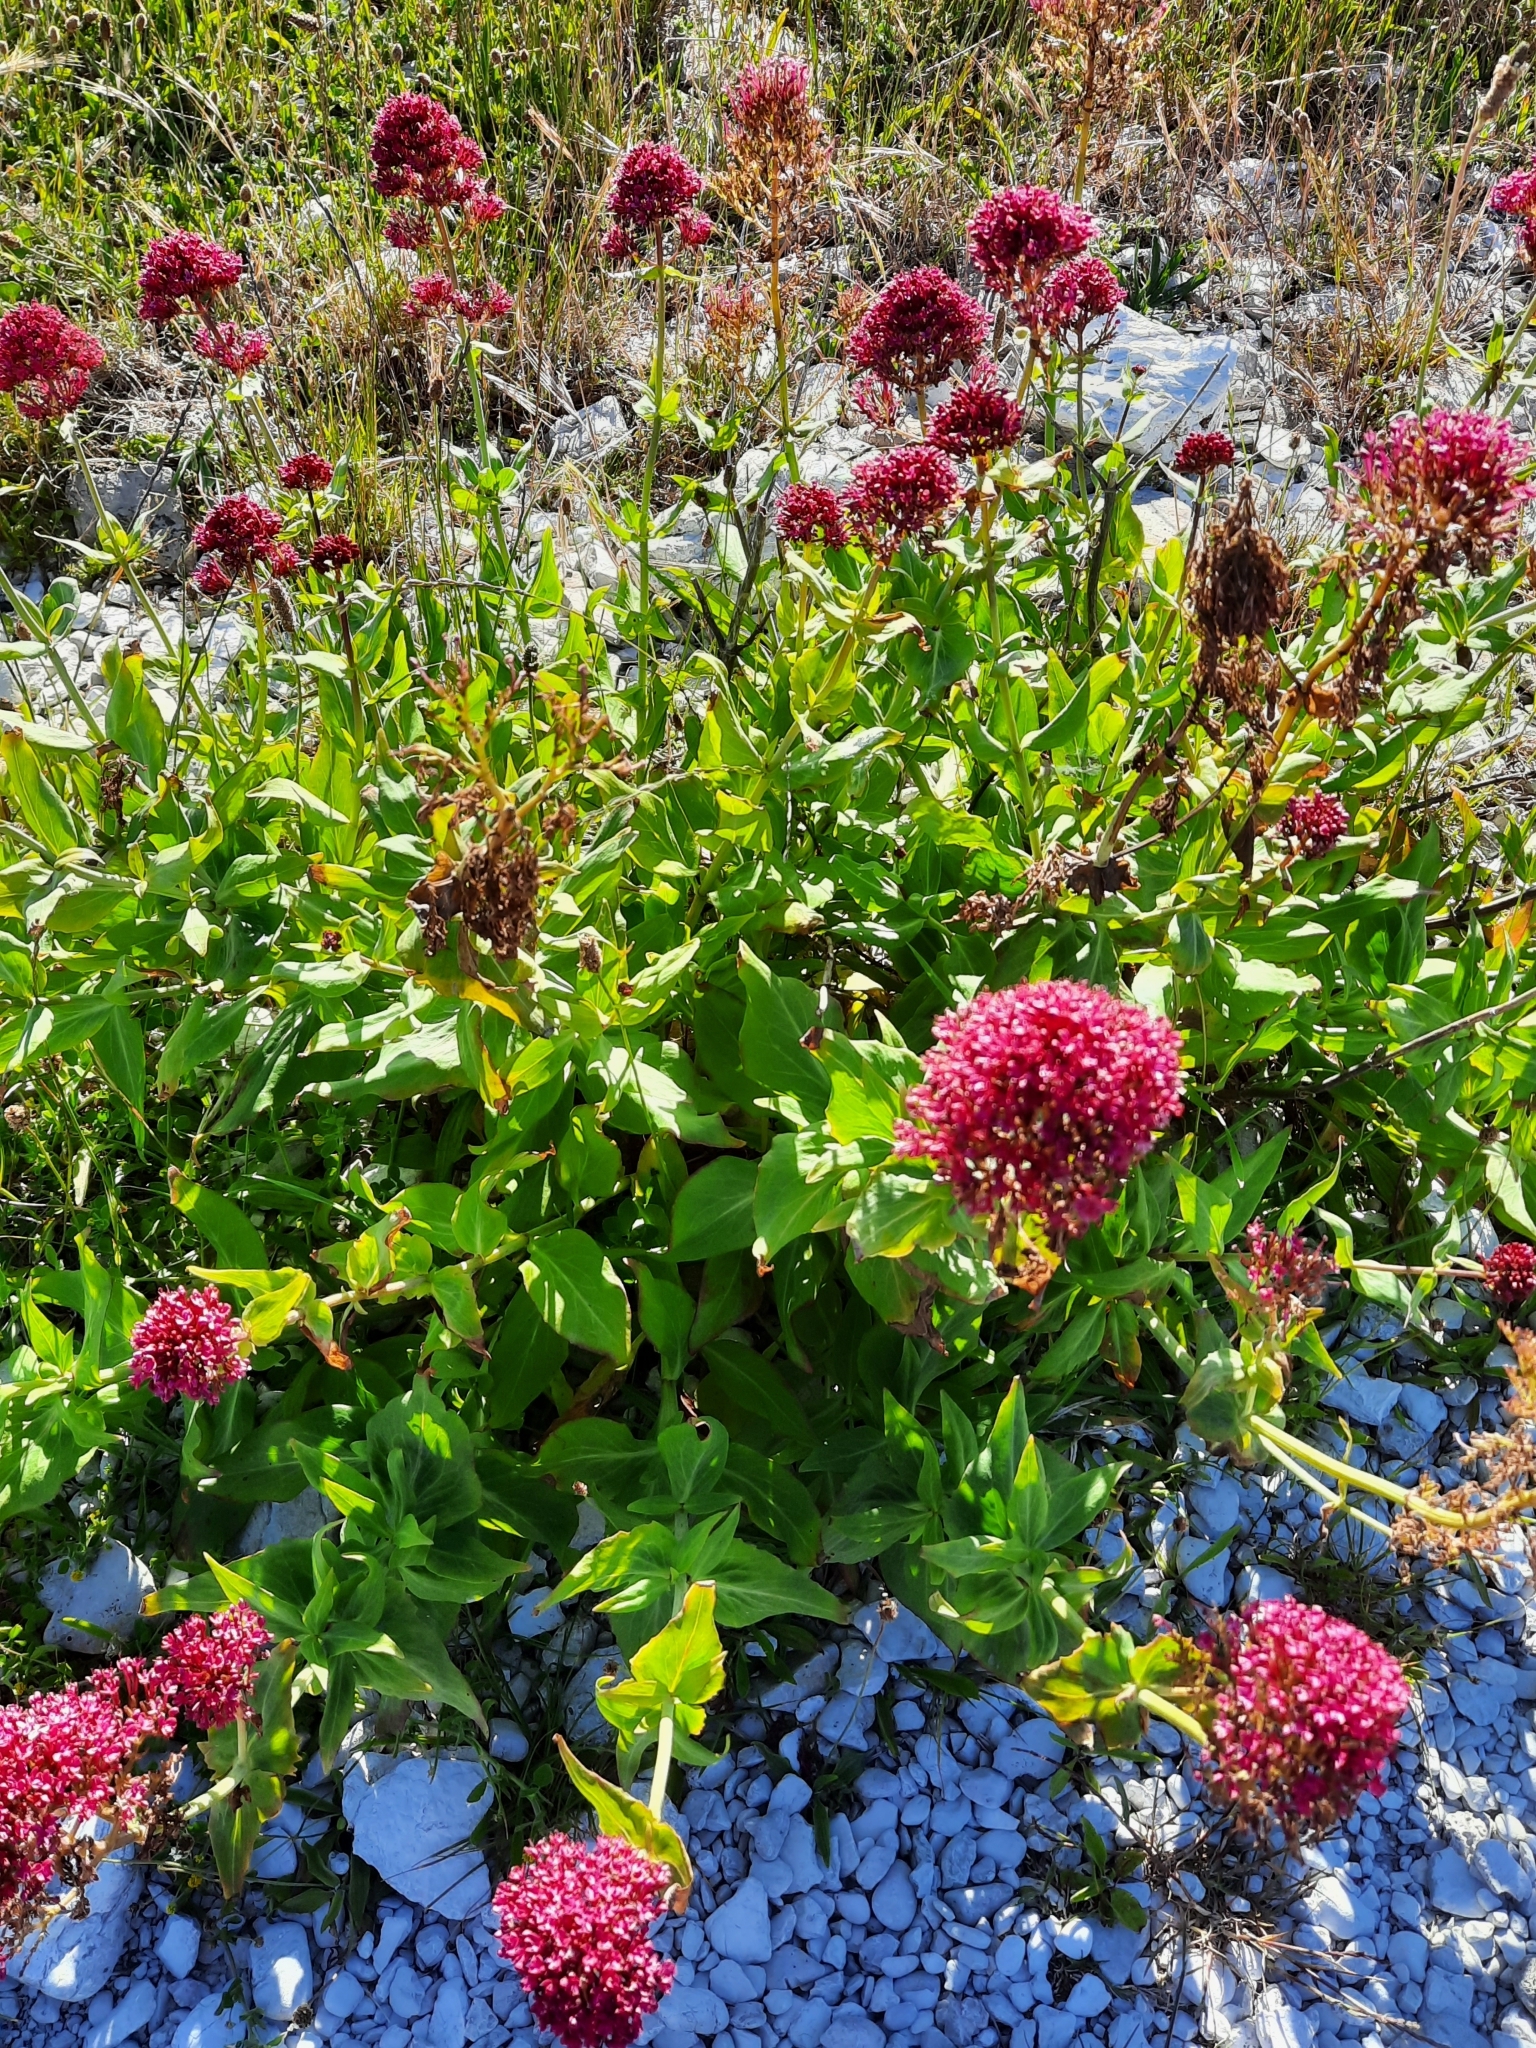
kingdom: Plantae
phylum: Tracheophyta
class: Magnoliopsida
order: Dipsacales
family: Caprifoliaceae
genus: Centranthus
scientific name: Centranthus ruber
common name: Red valerian
